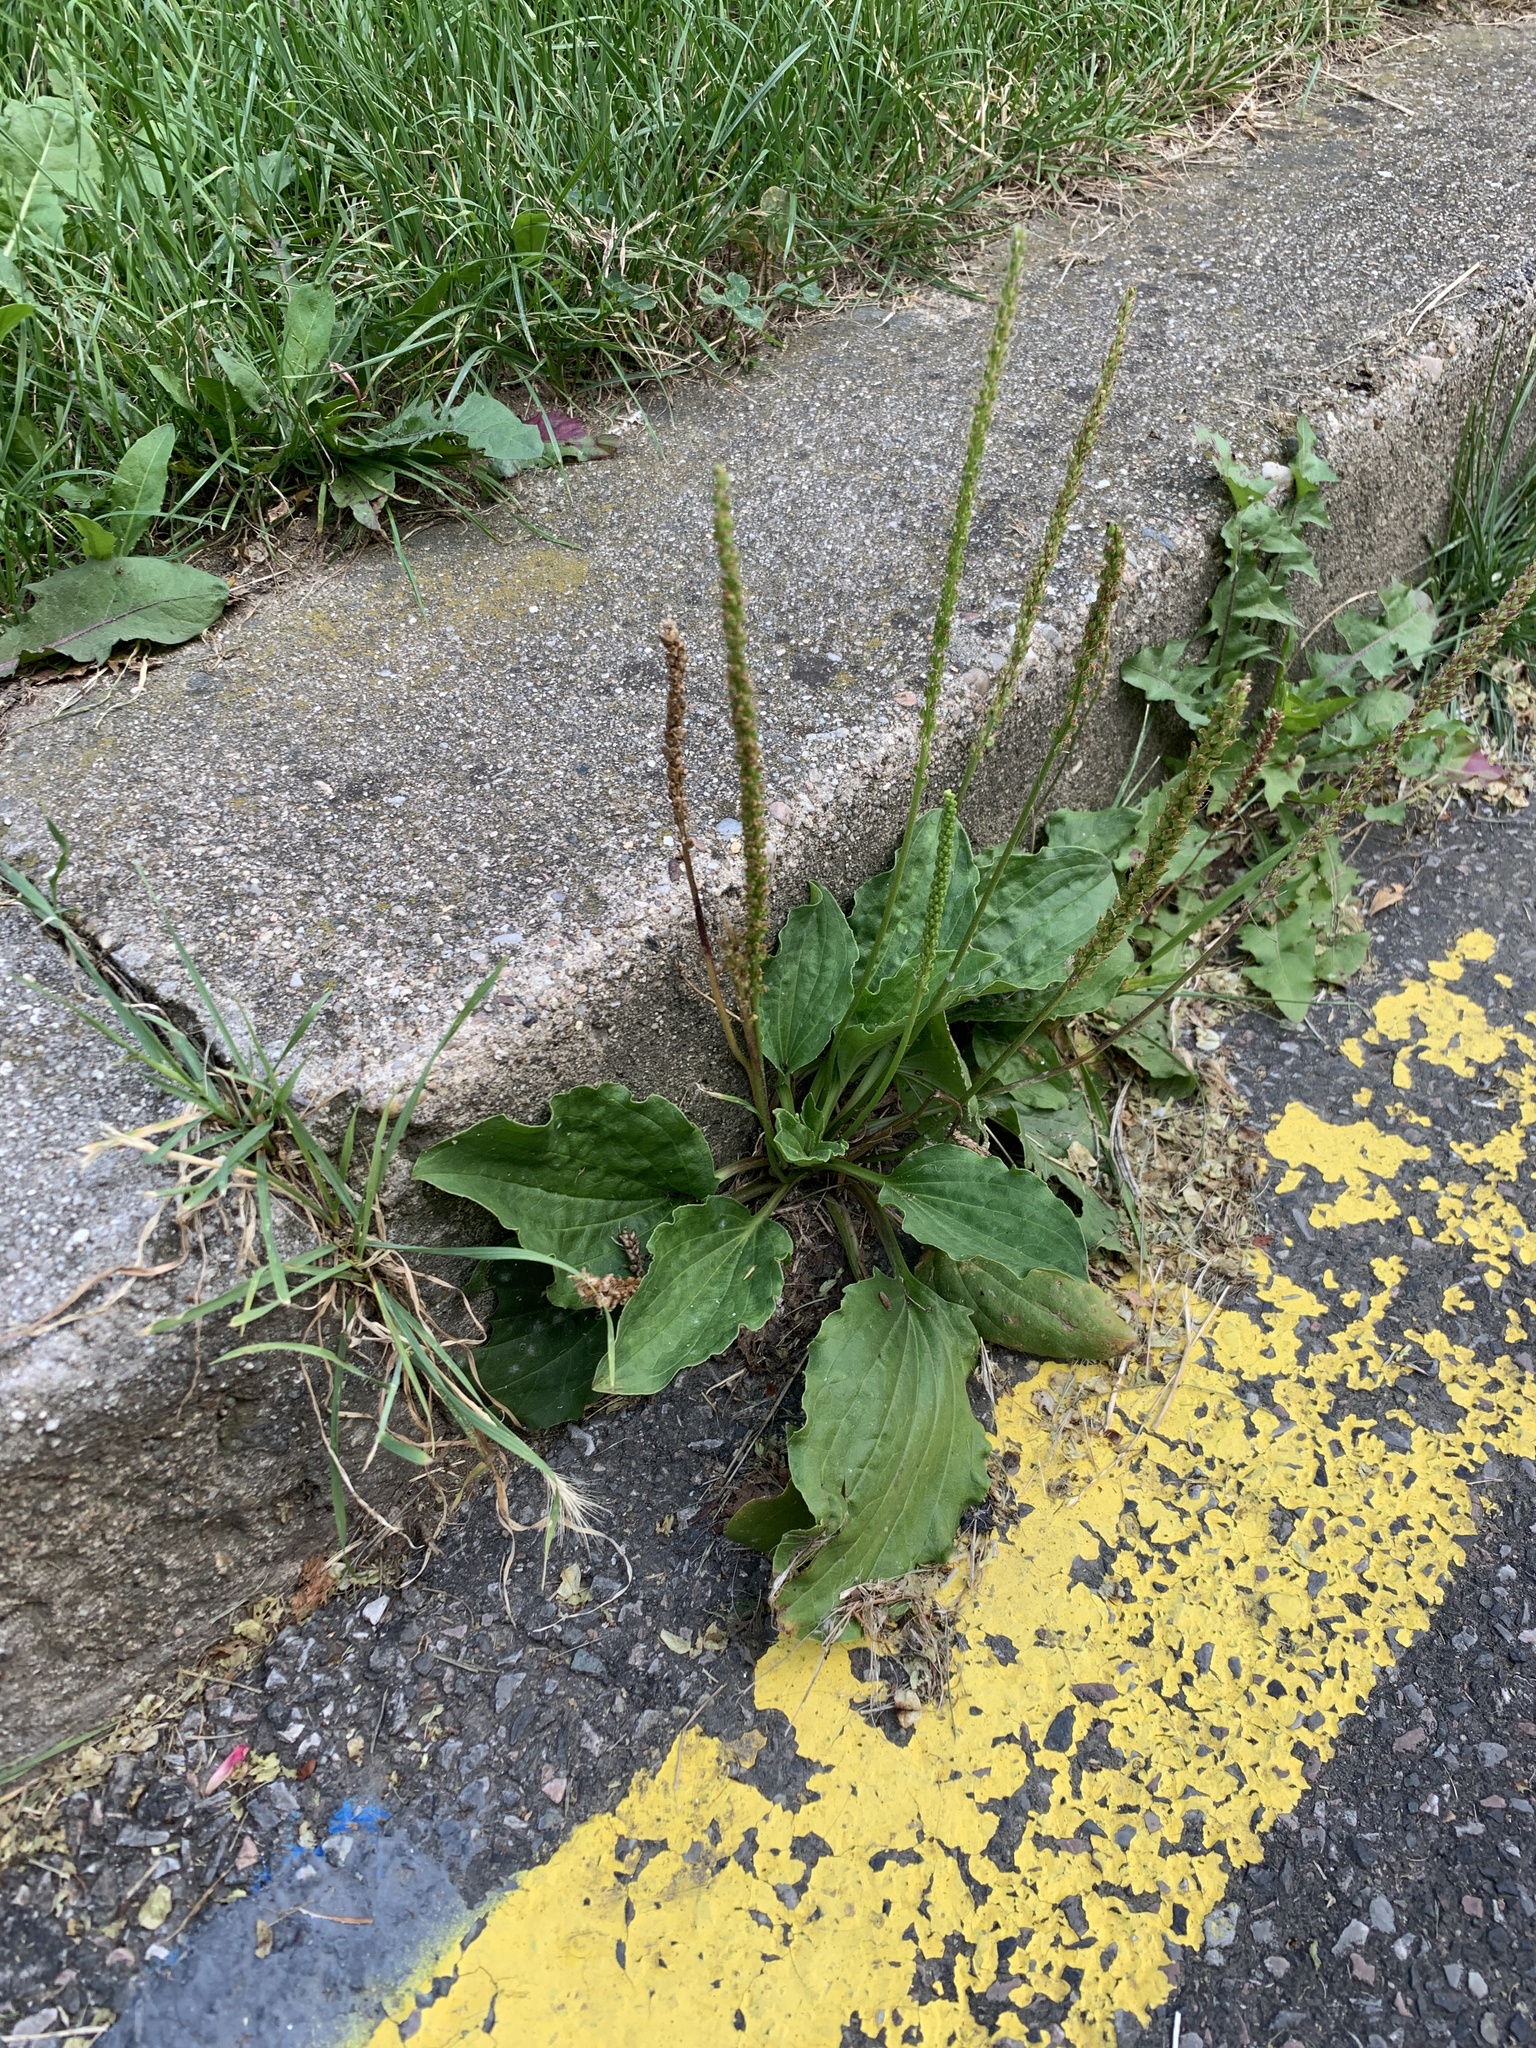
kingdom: Plantae
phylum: Tracheophyta
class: Magnoliopsida
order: Lamiales
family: Plantaginaceae
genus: Plantago
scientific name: Plantago major
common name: Common plantain
